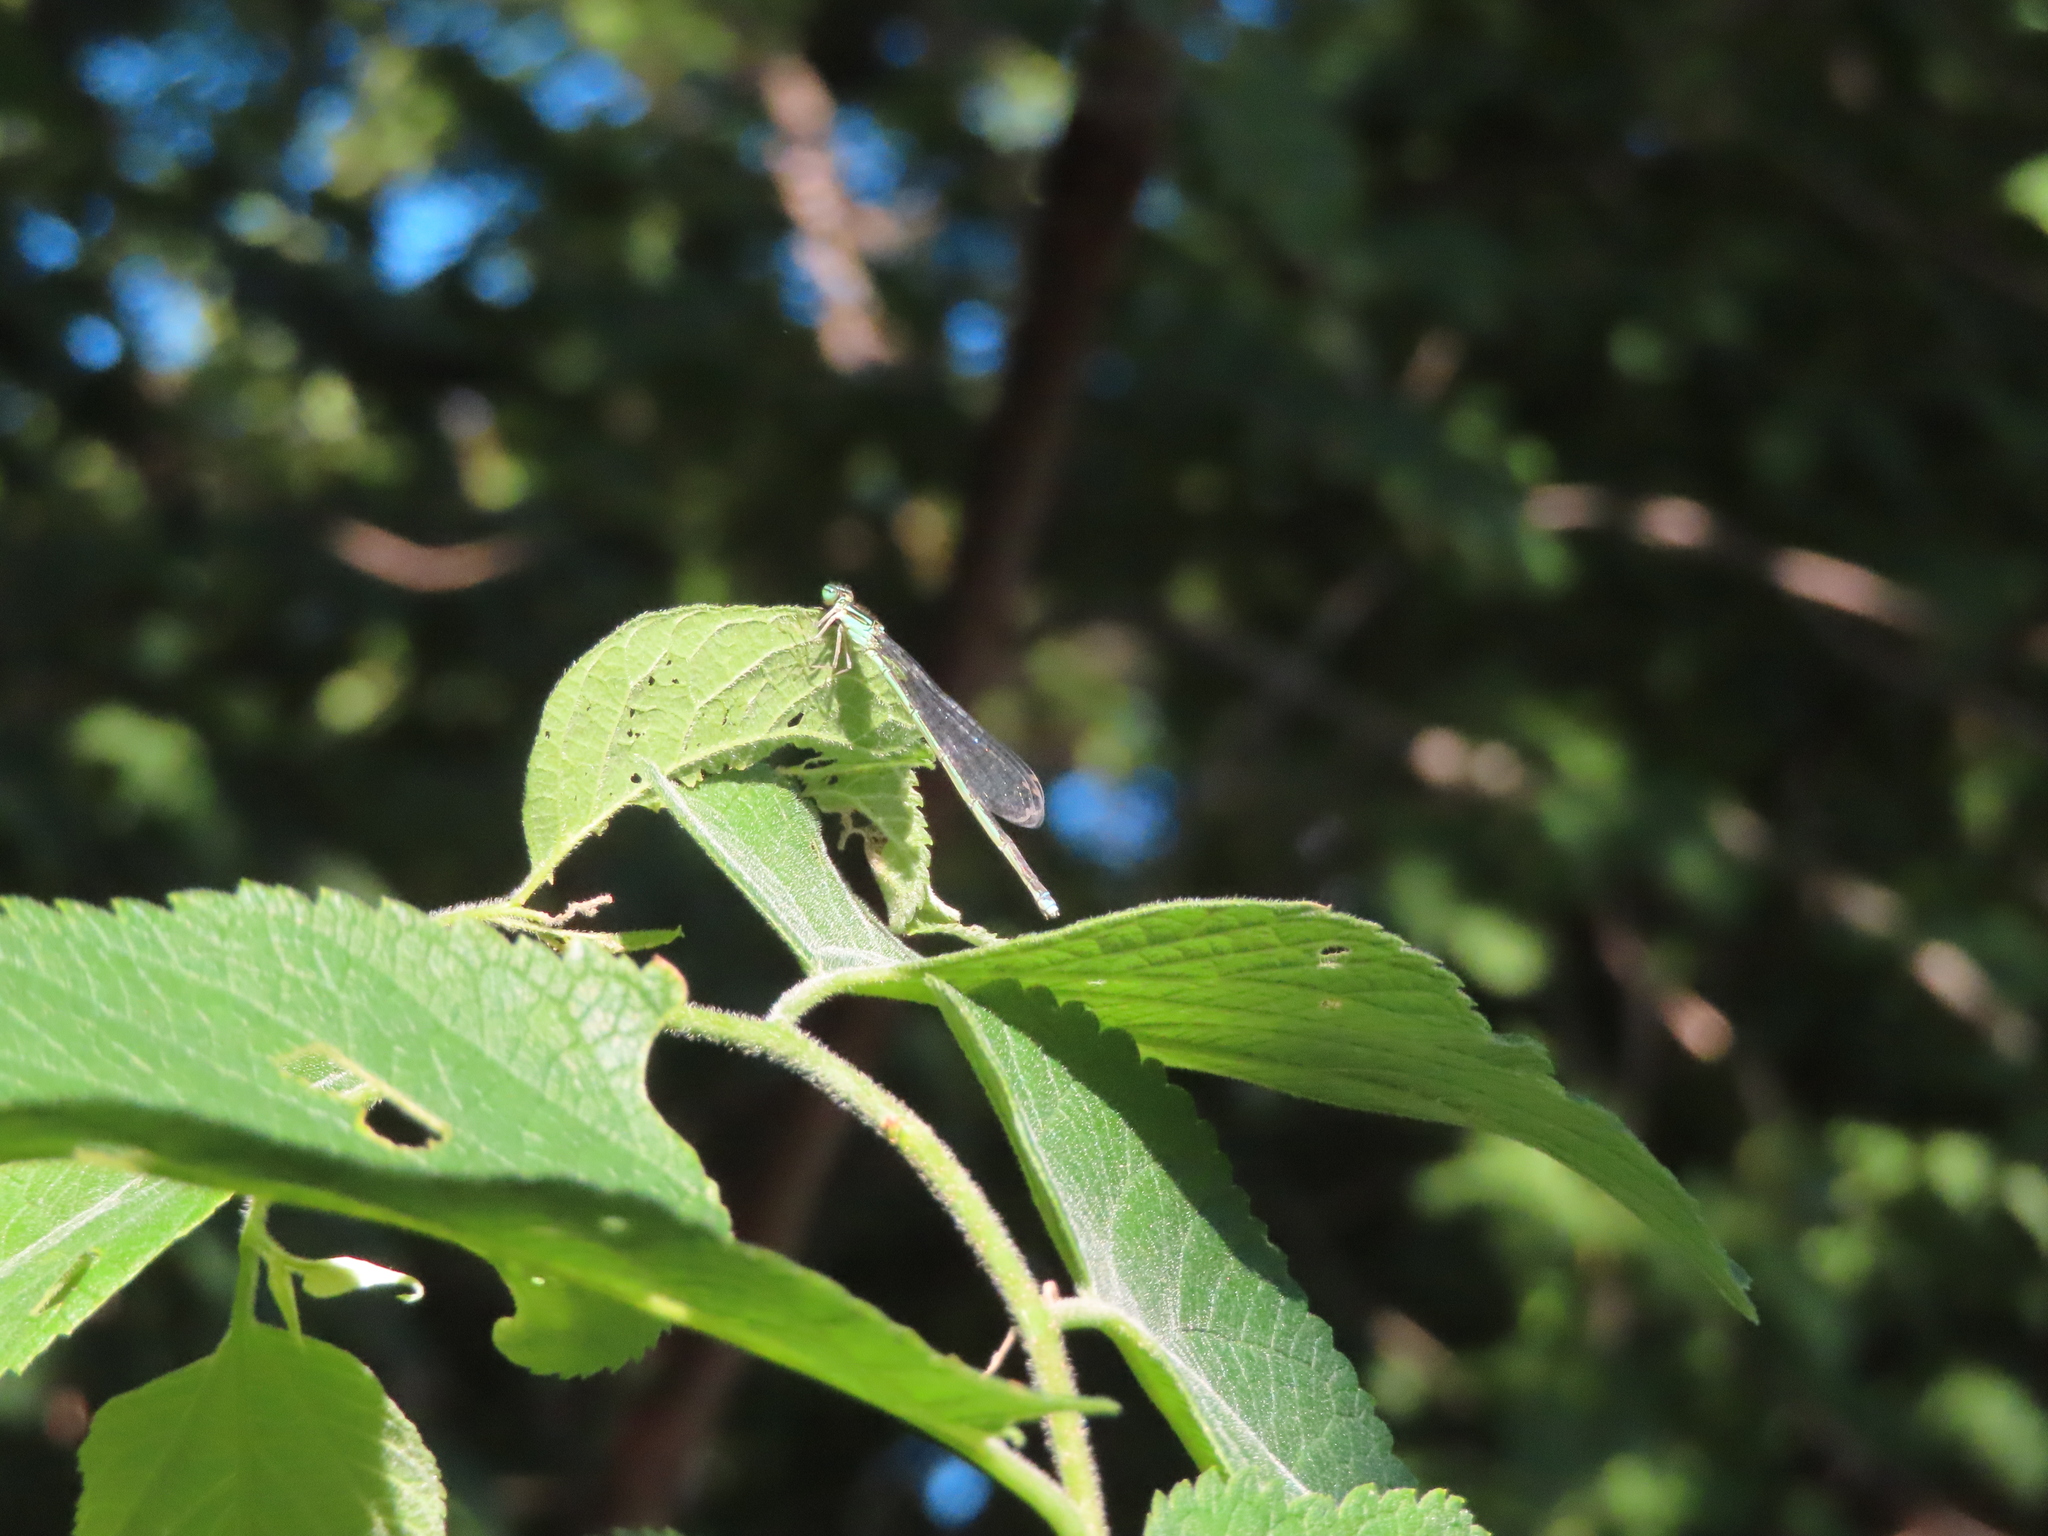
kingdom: Animalia
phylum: Arthropoda
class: Insecta
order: Odonata
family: Coenagrionidae
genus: Enallagma
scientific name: Enallagma exsulans
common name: Stream bluet
